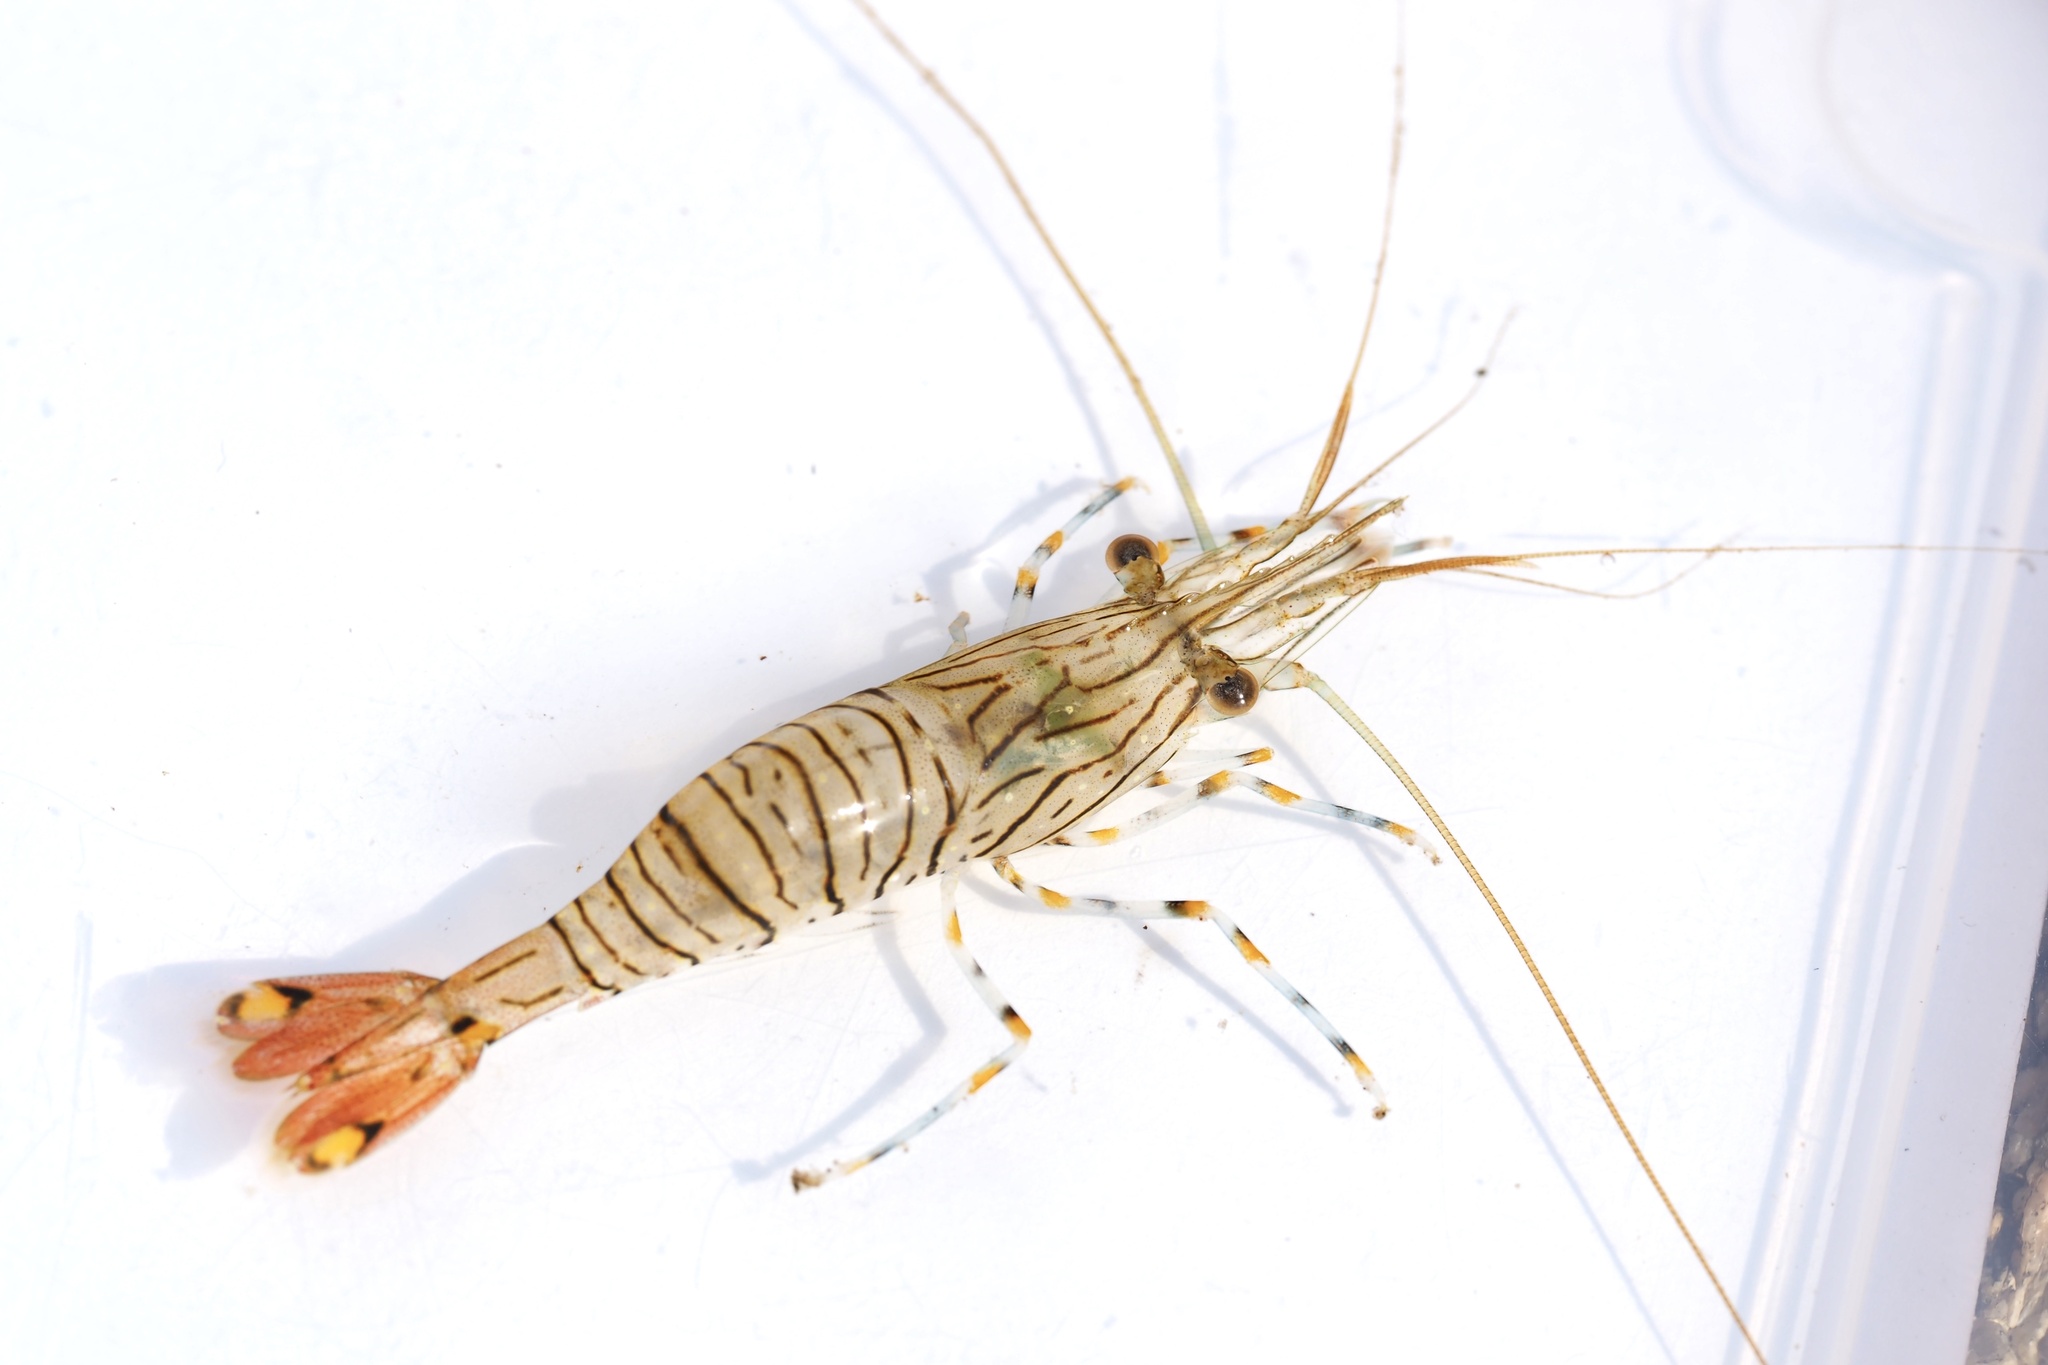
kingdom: Animalia
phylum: Arthropoda
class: Malacostraca
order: Decapoda
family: Palaemonidae
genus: Palaemon
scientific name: Palaemon pacificus
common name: Indian bait prawn
